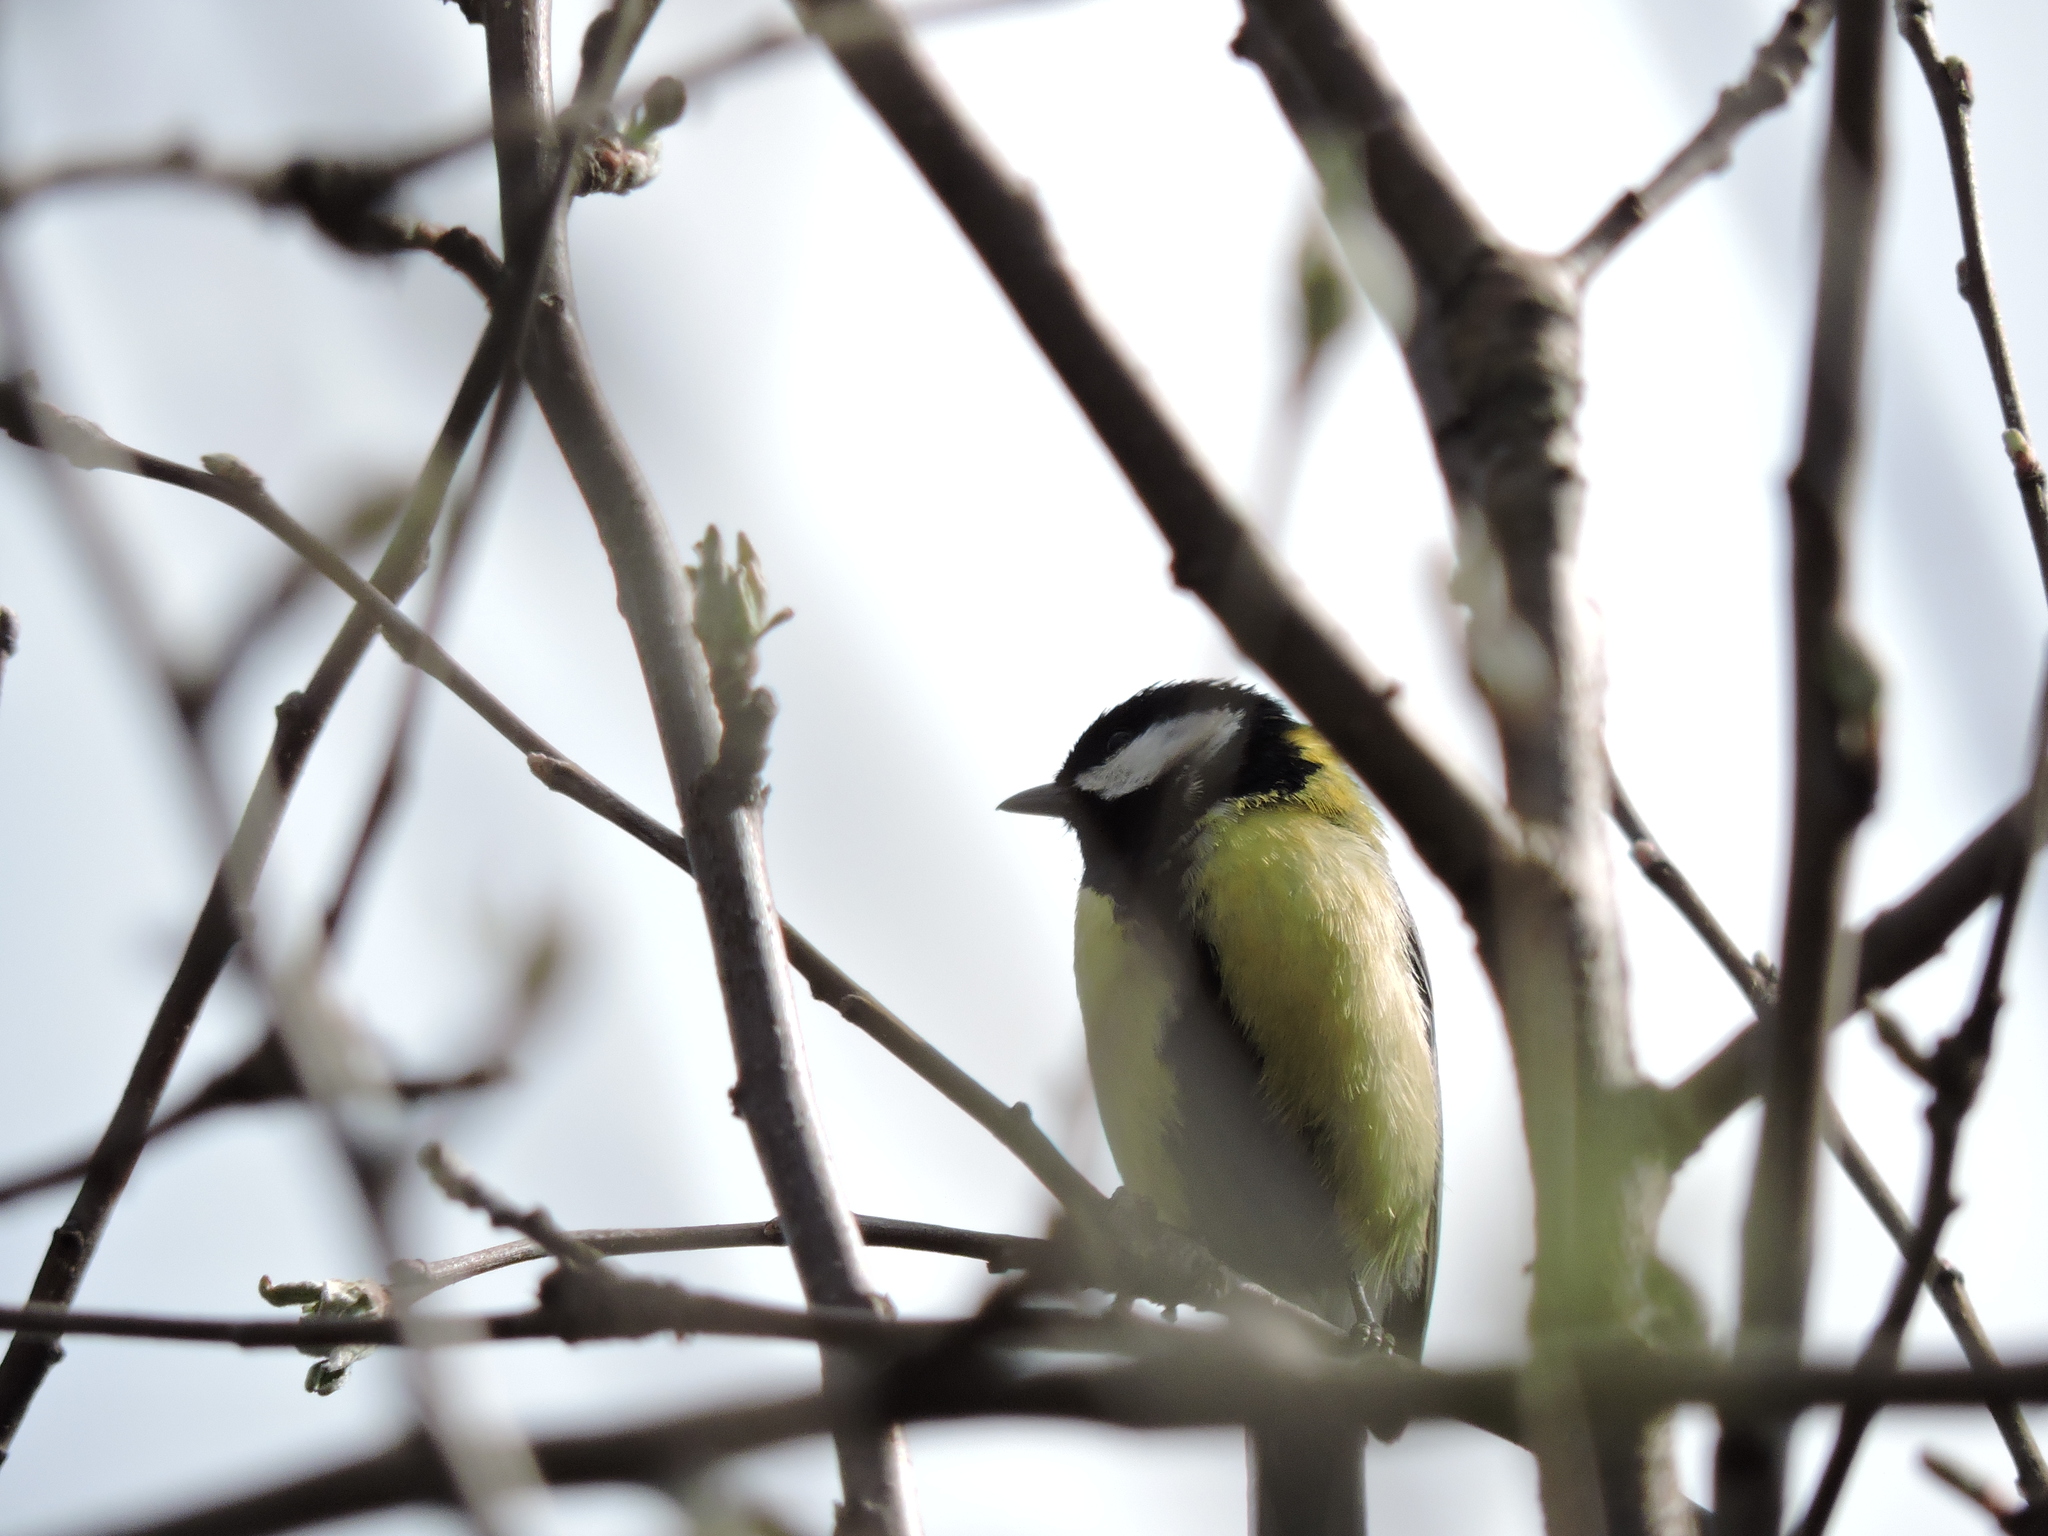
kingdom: Animalia
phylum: Chordata
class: Aves
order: Passeriformes
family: Paridae
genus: Parus
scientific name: Parus major
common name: Great tit
